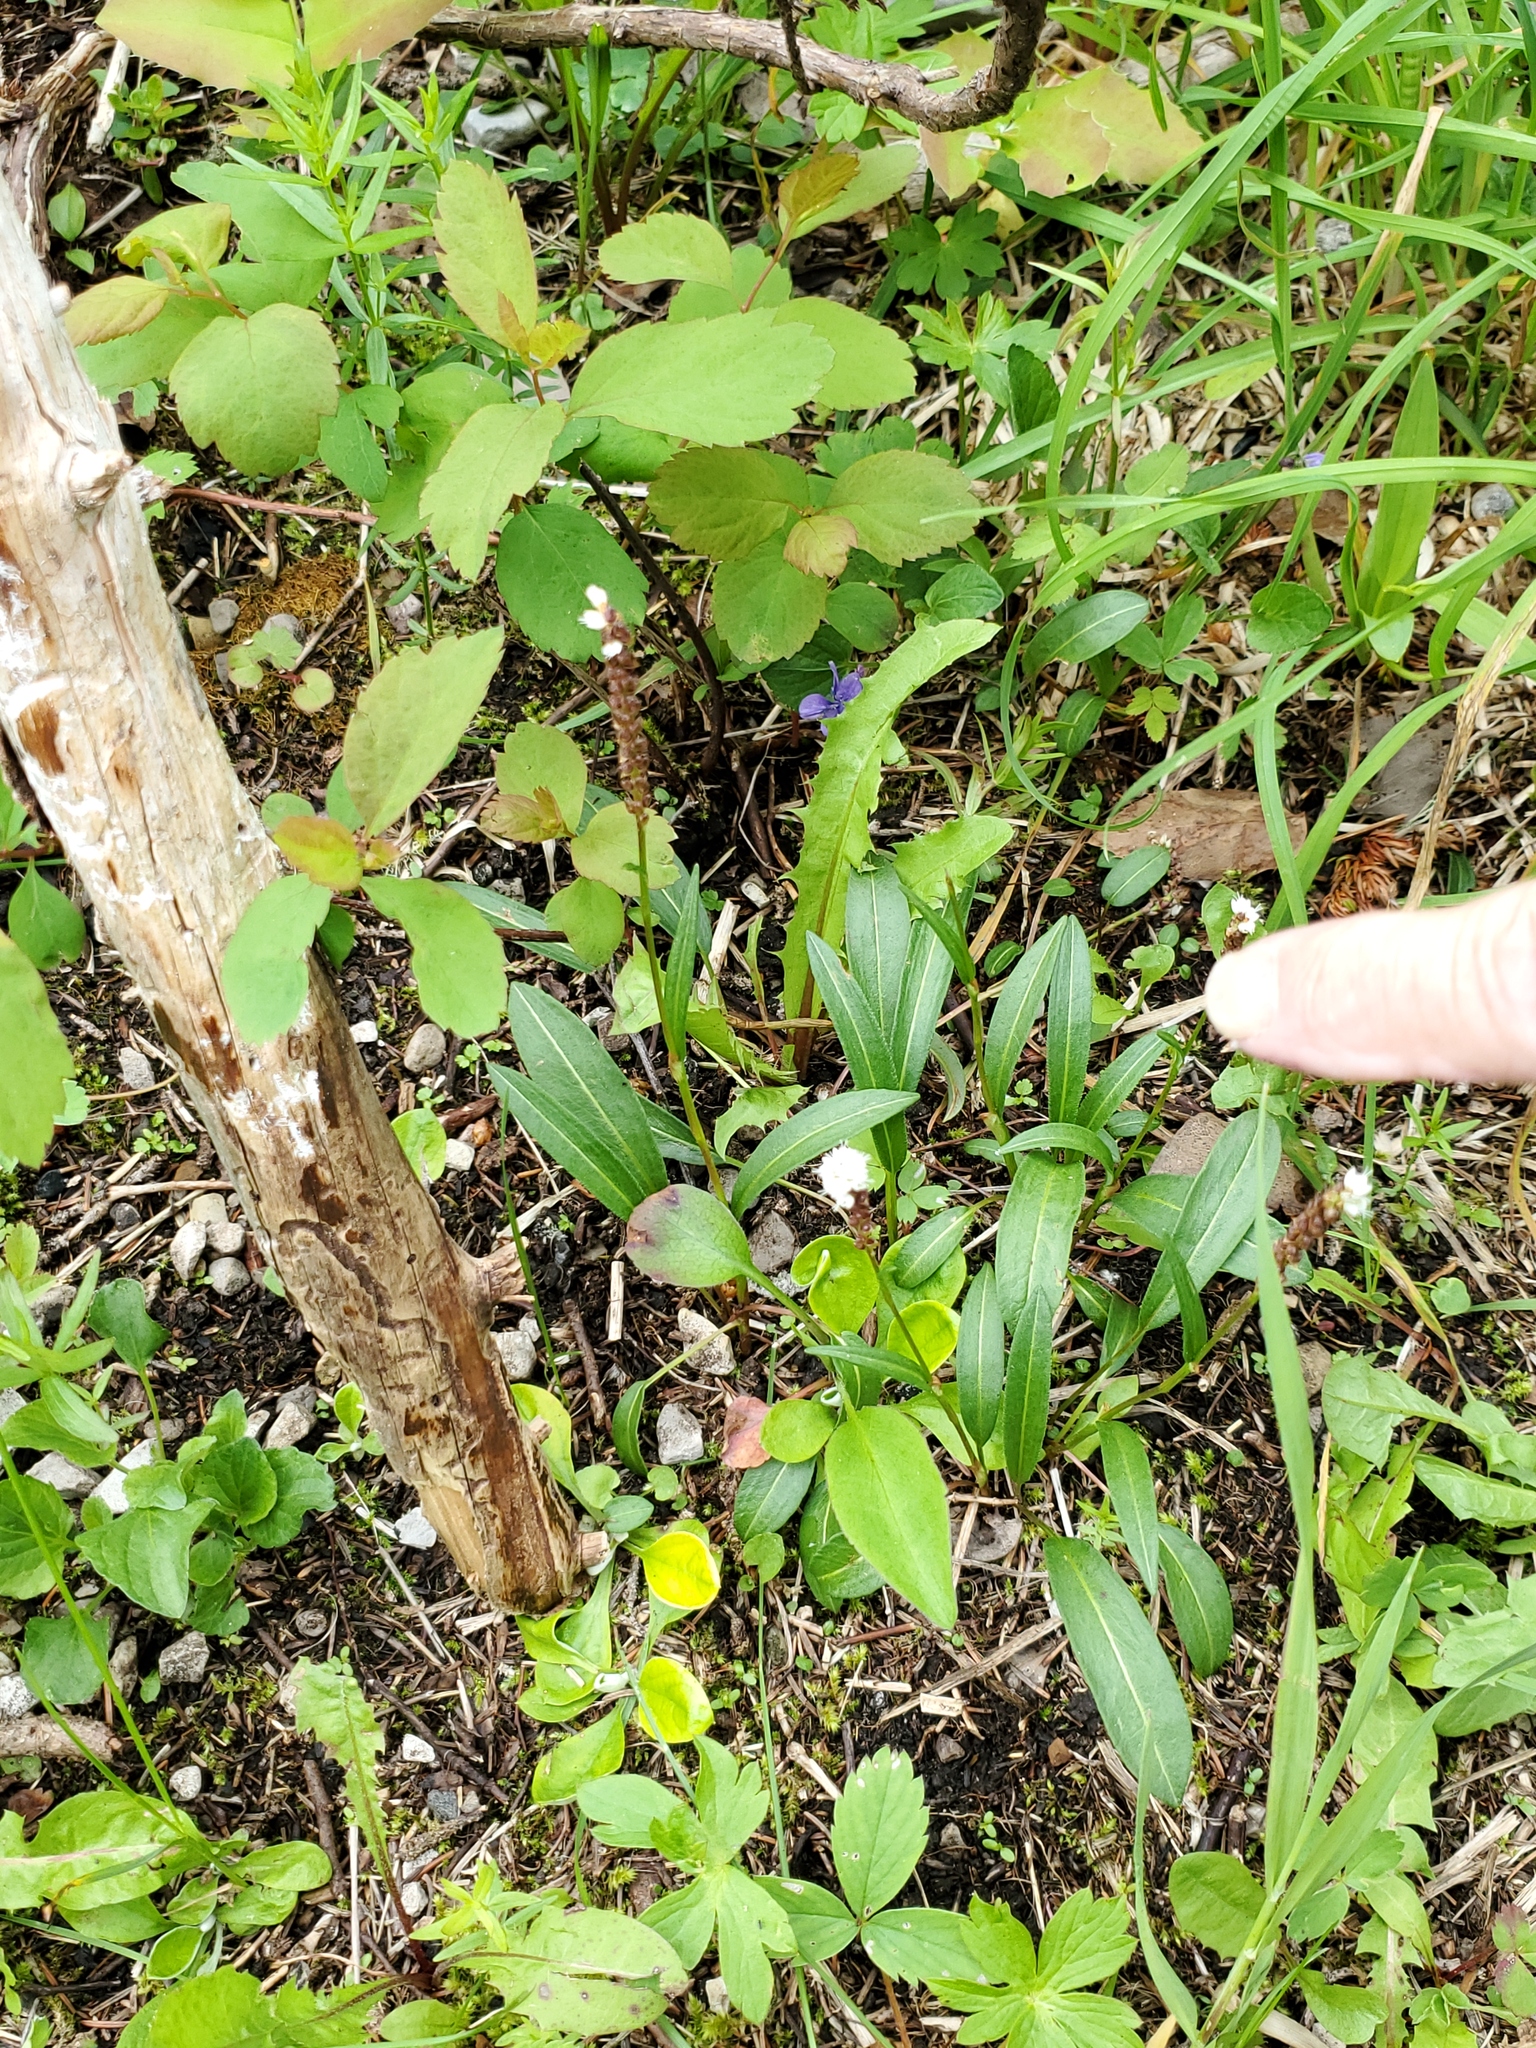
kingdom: Plantae
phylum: Tracheophyta
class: Magnoliopsida
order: Caryophyllales
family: Polygonaceae
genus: Bistorta
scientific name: Bistorta vivipara
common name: Alpine bistort
